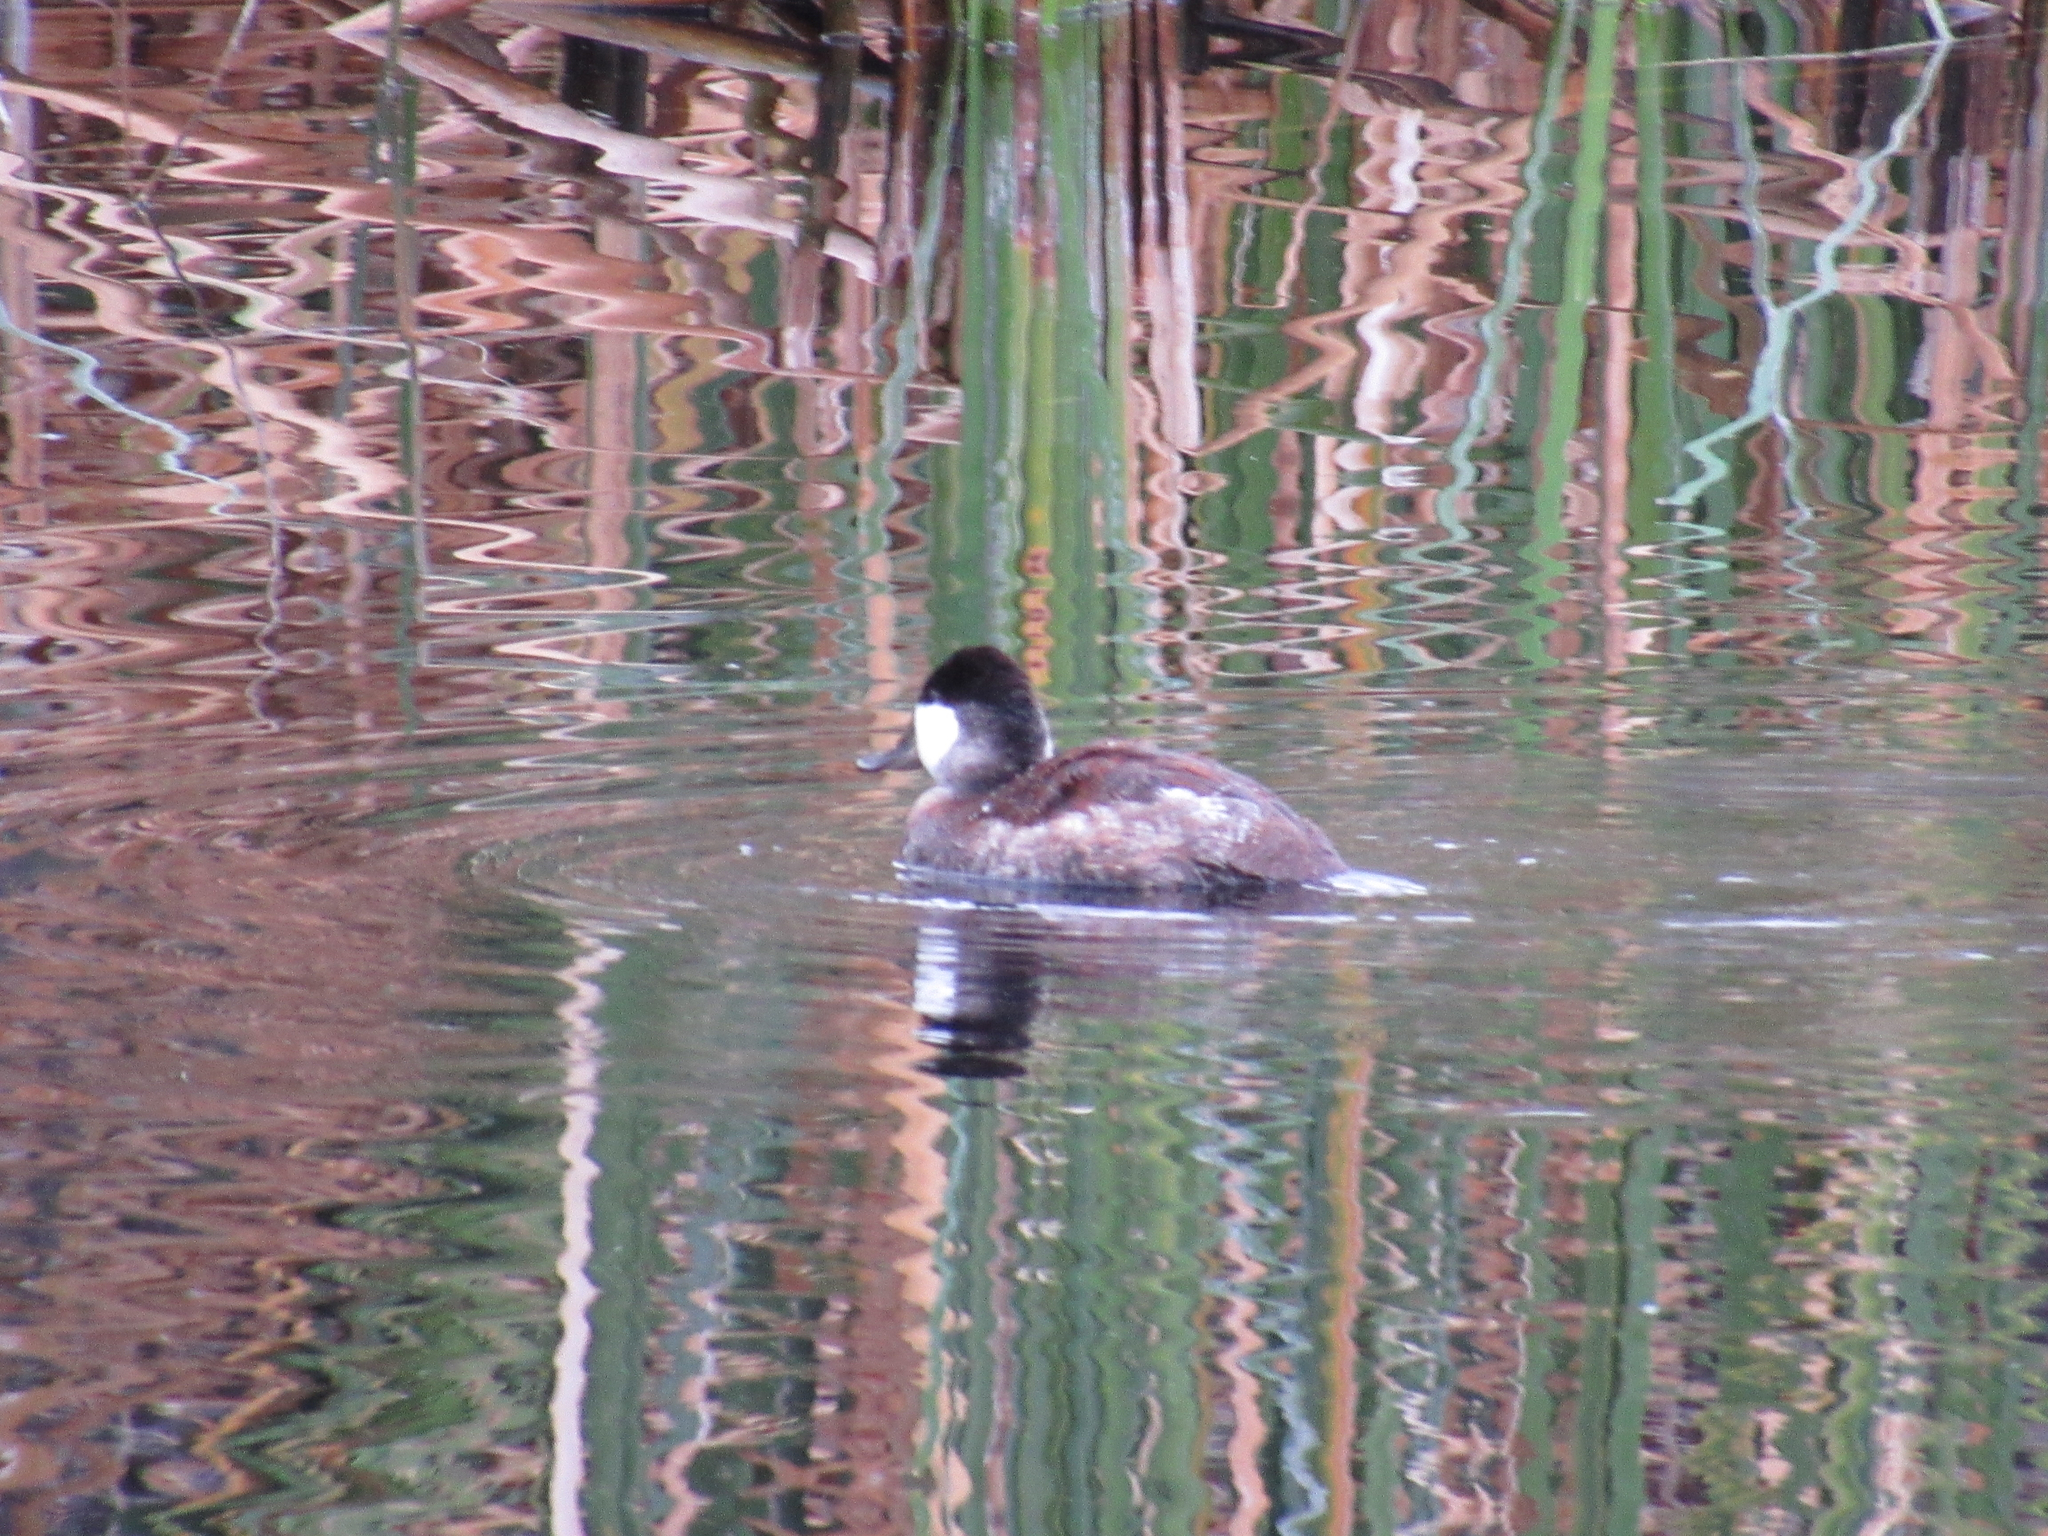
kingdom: Animalia
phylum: Chordata
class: Aves
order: Anseriformes
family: Anatidae
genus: Oxyura
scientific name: Oxyura jamaicensis
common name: Ruddy duck
